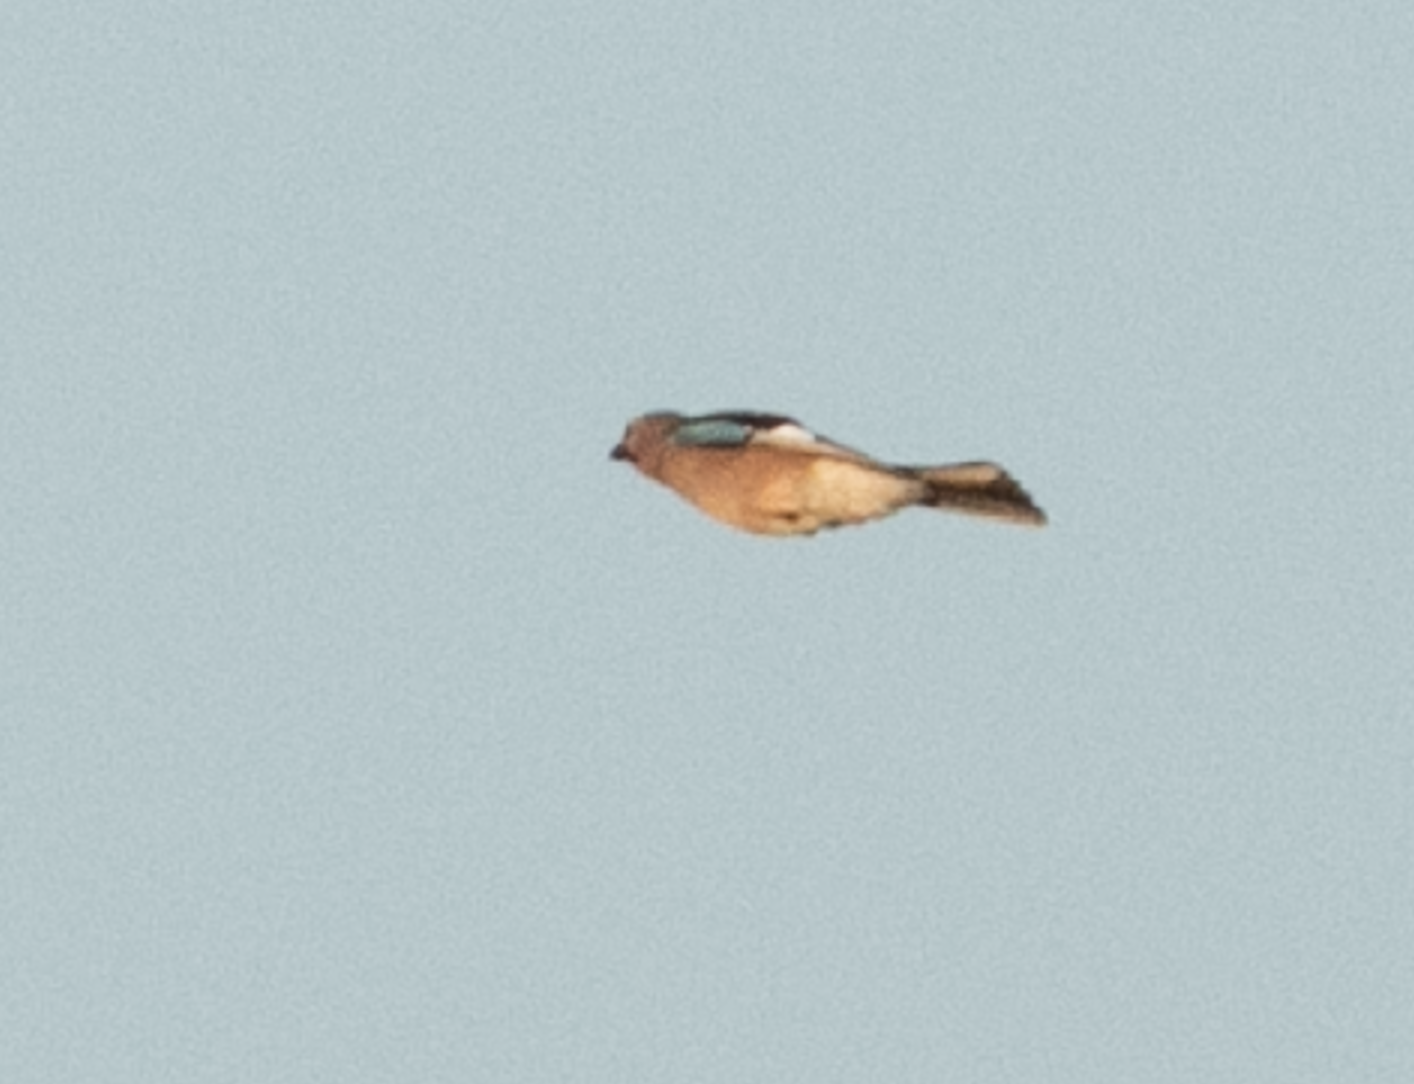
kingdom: Animalia
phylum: Chordata
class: Aves
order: Passeriformes
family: Corvidae
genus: Garrulus
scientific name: Garrulus glandarius
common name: Eurasian jay
